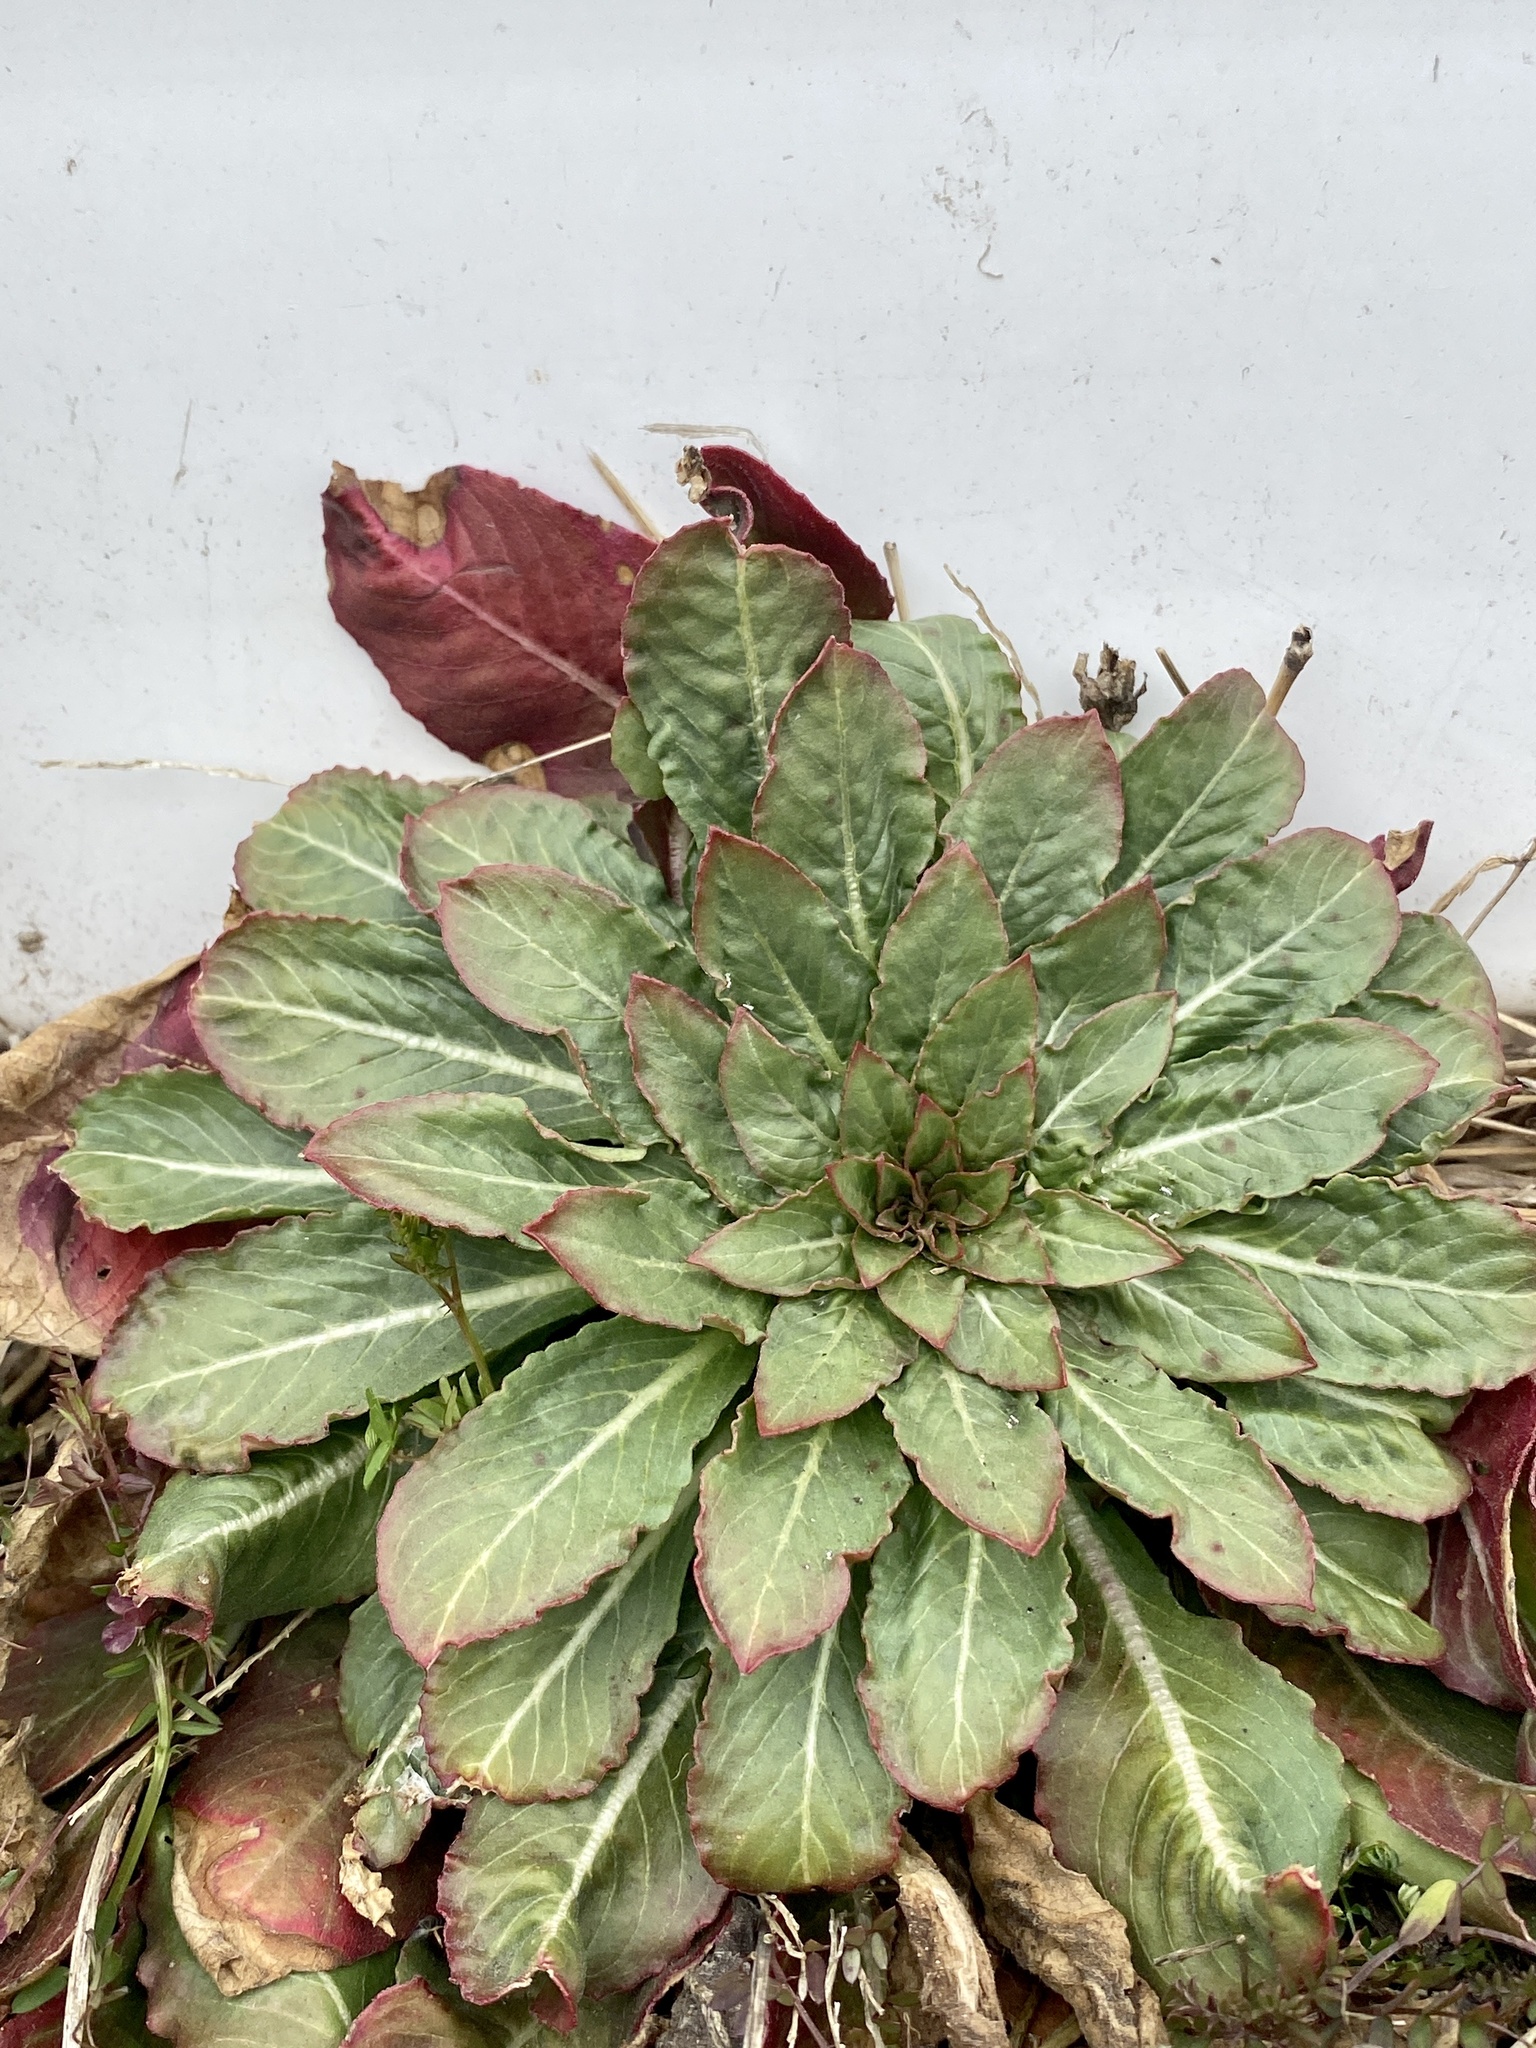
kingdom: Plantae
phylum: Tracheophyta
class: Magnoliopsida
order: Myrtales
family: Onagraceae
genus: Oenothera
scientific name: Oenothera biennis
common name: Common evening-primrose
